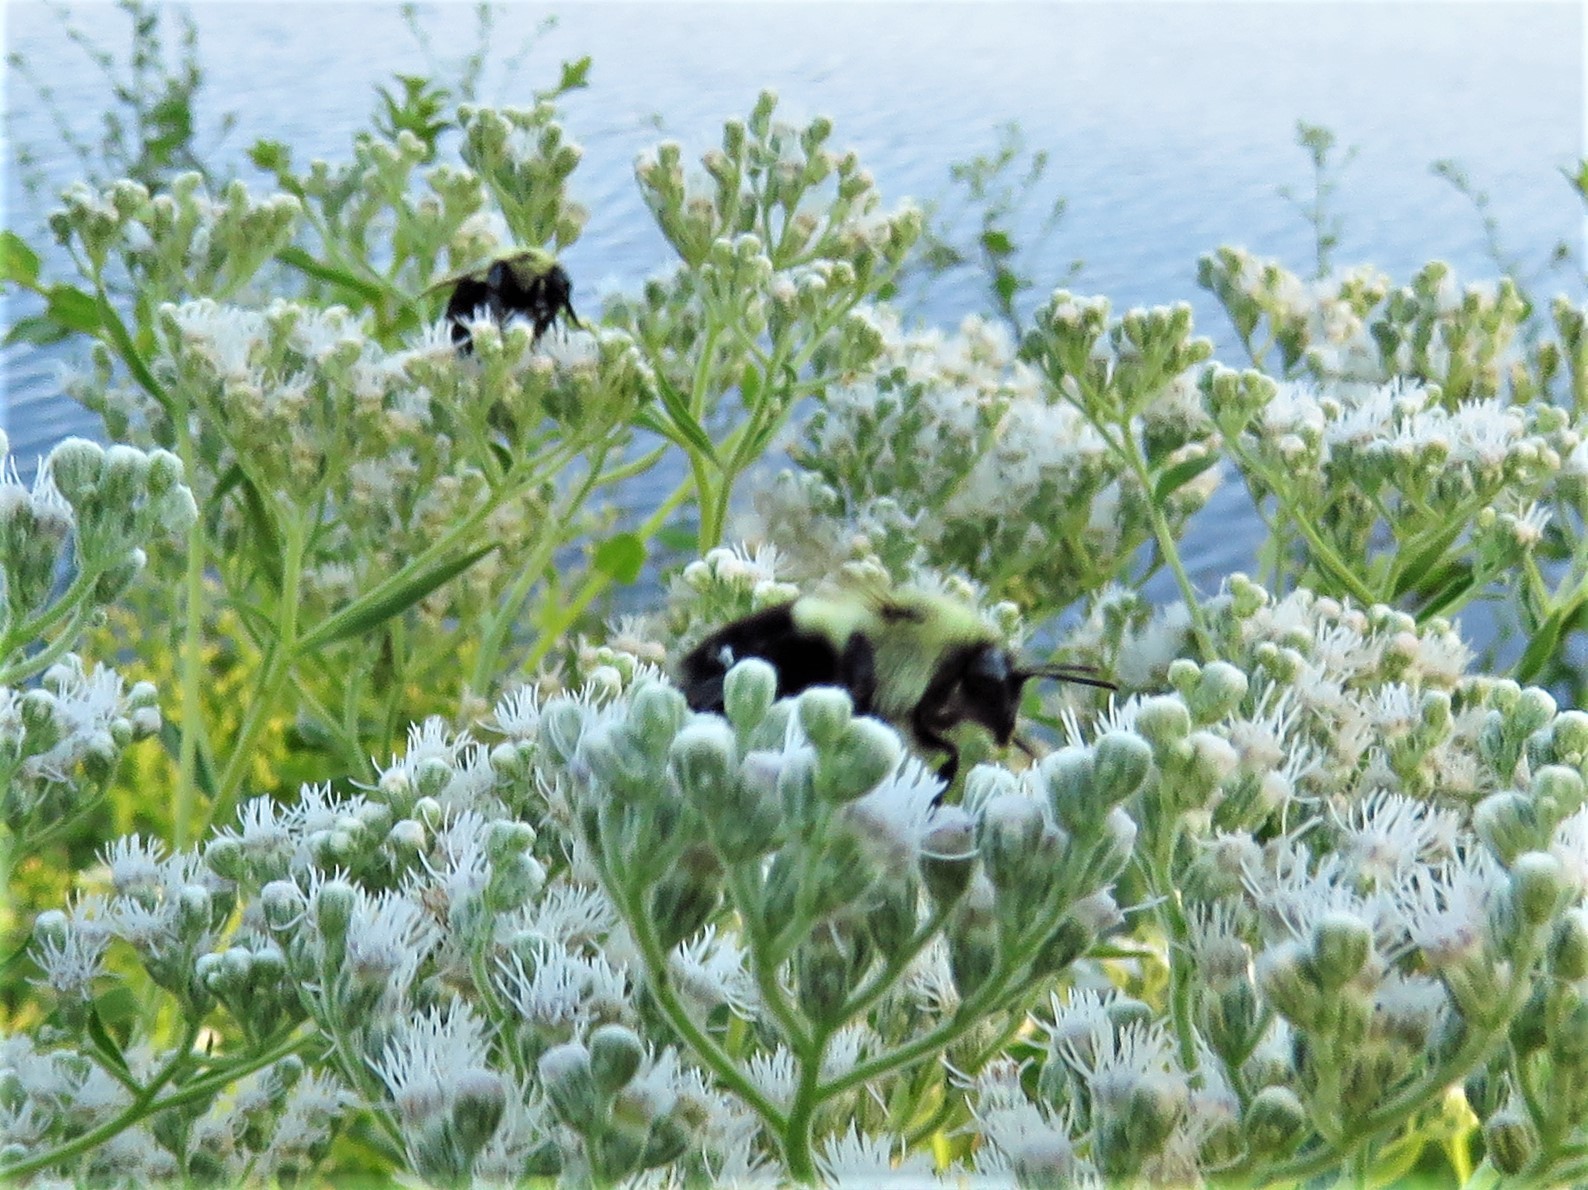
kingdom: Animalia
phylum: Arthropoda
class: Insecta
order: Hymenoptera
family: Apidae
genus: Bombus
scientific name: Bombus impatiens
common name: Common eastern bumble bee
